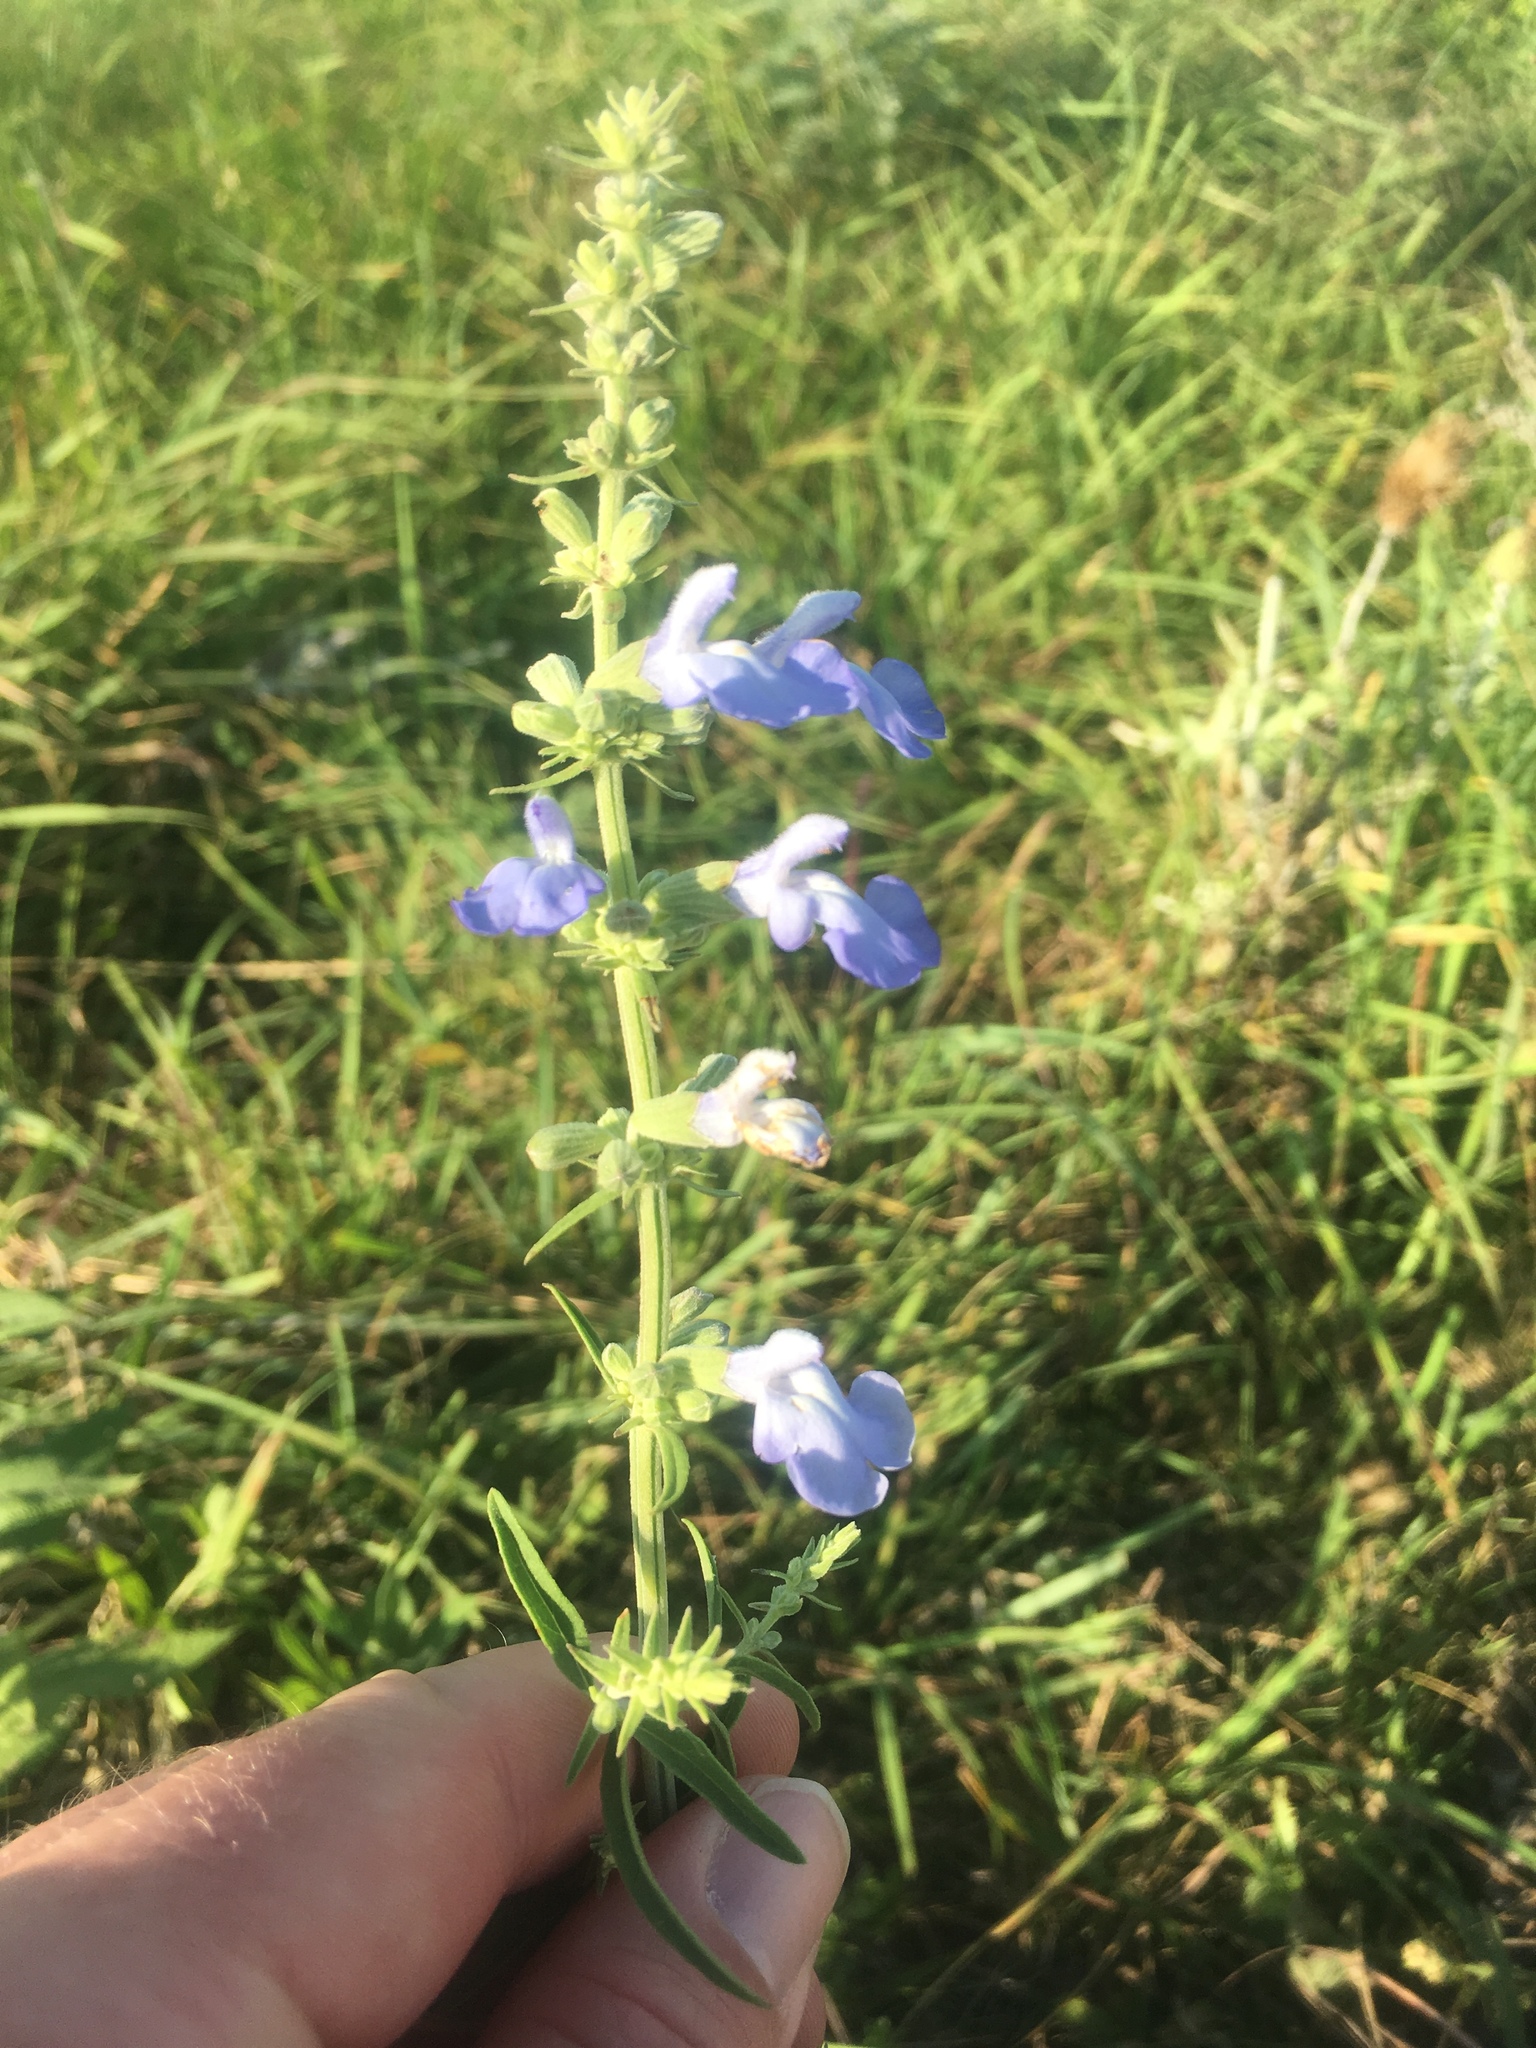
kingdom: Plantae
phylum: Tracheophyta
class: Magnoliopsida
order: Lamiales
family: Lamiaceae
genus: Salvia
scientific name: Salvia azurea
